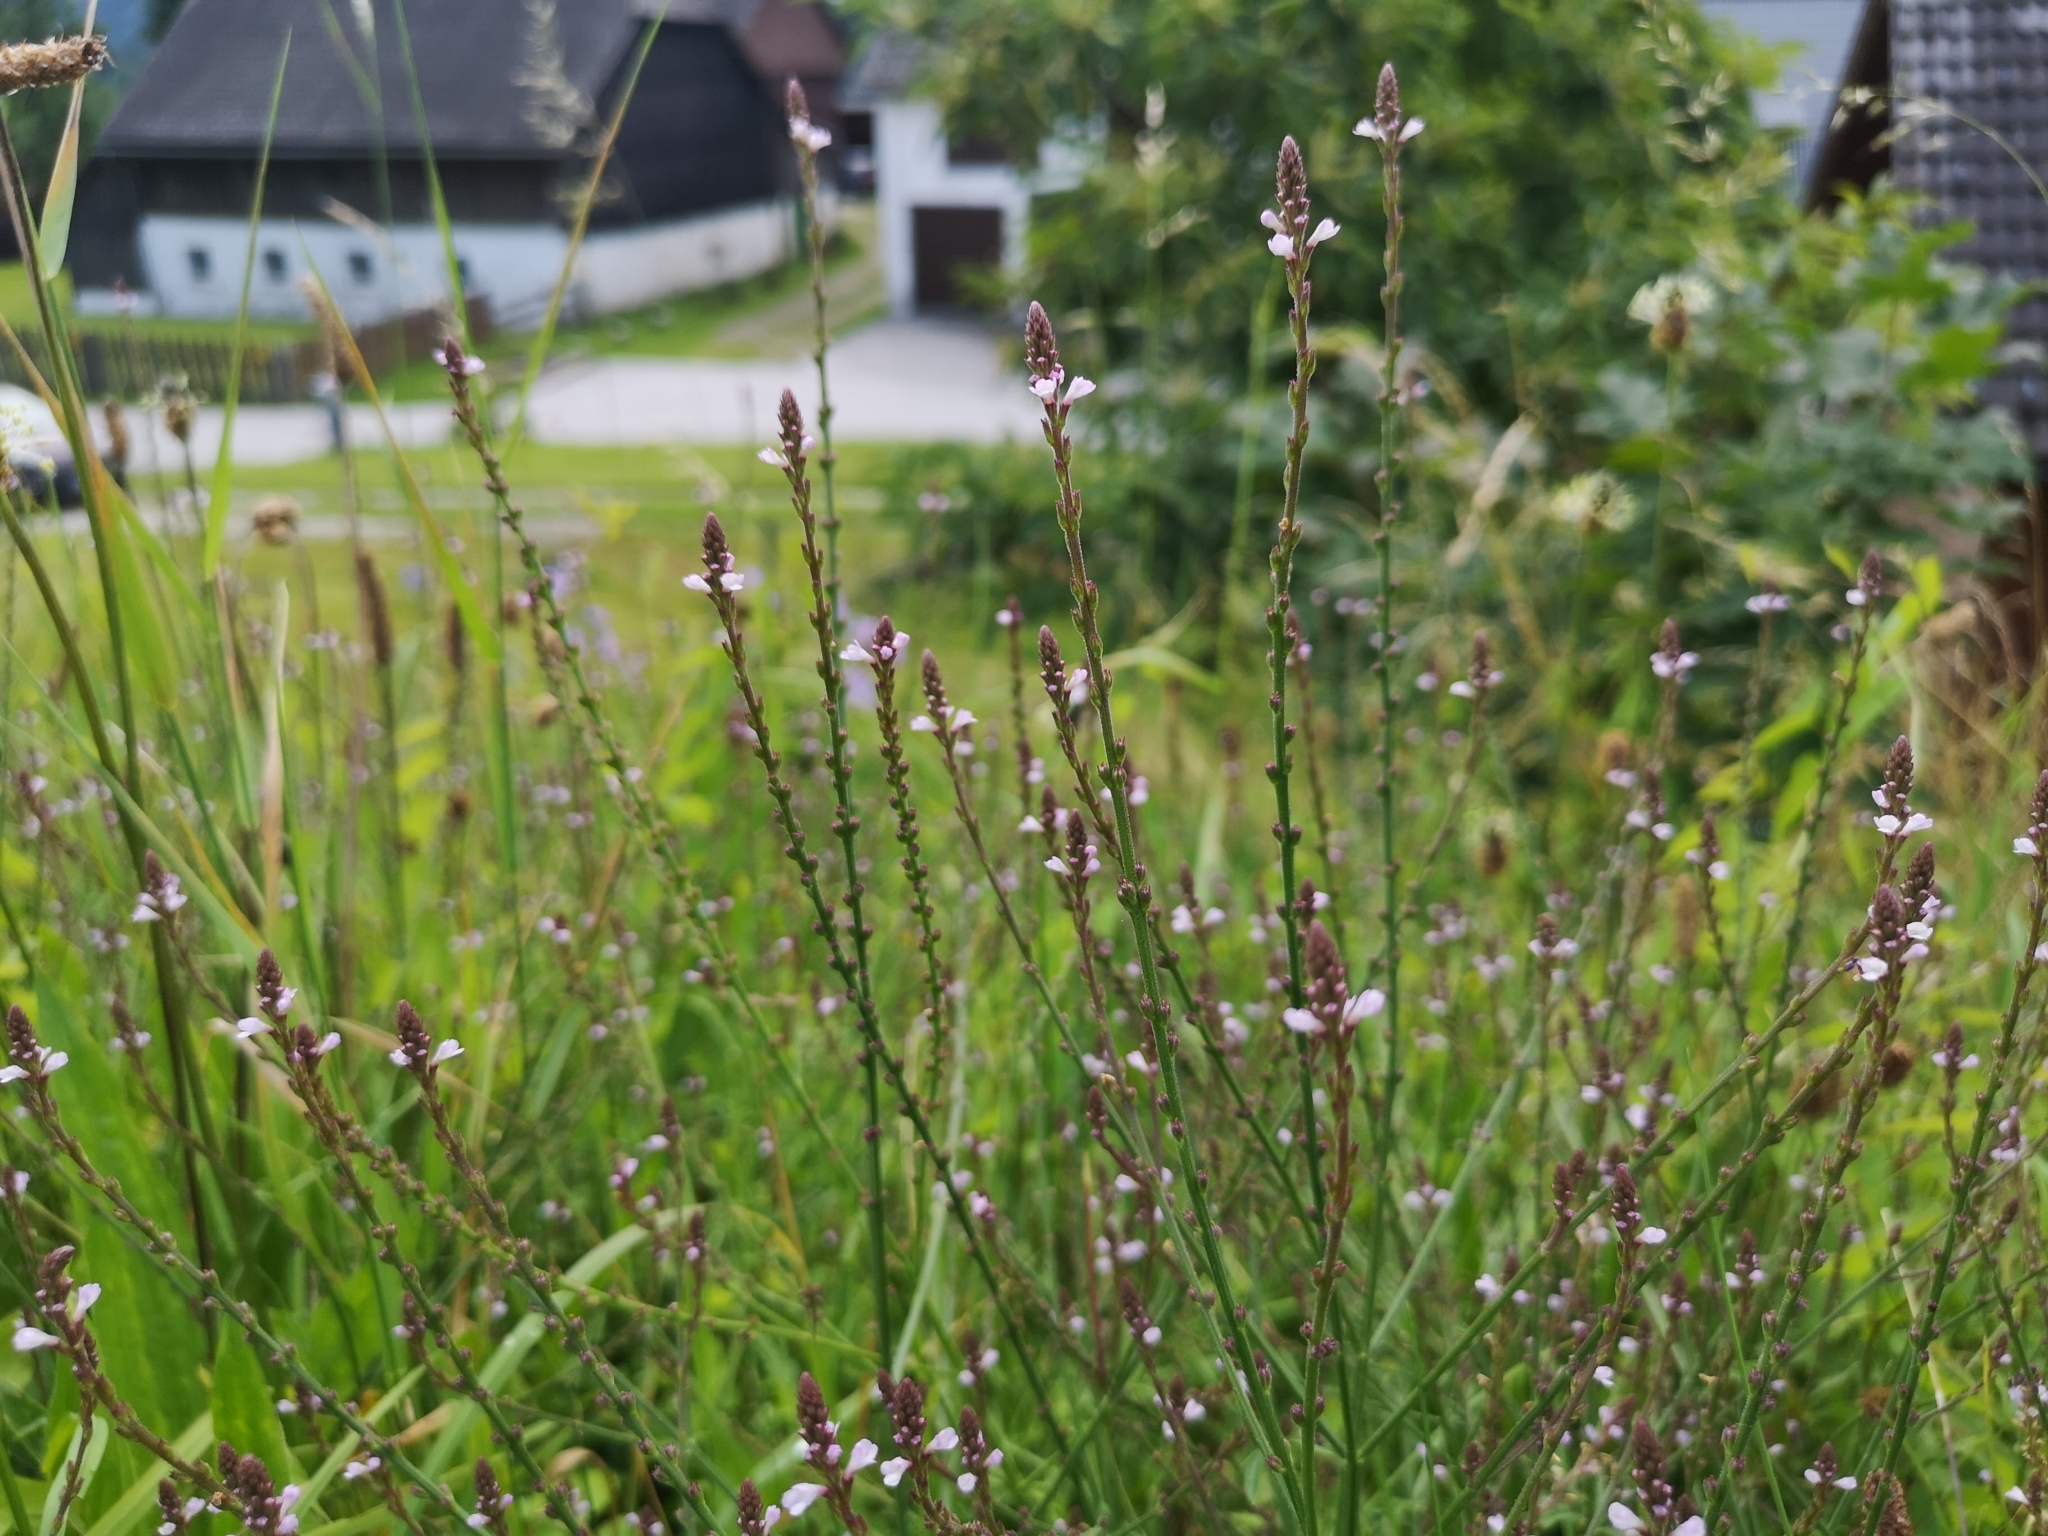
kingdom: Plantae
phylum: Tracheophyta
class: Magnoliopsida
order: Lamiales
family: Verbenaceae
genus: Verbena
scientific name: Verbena officinalis
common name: Vervain
